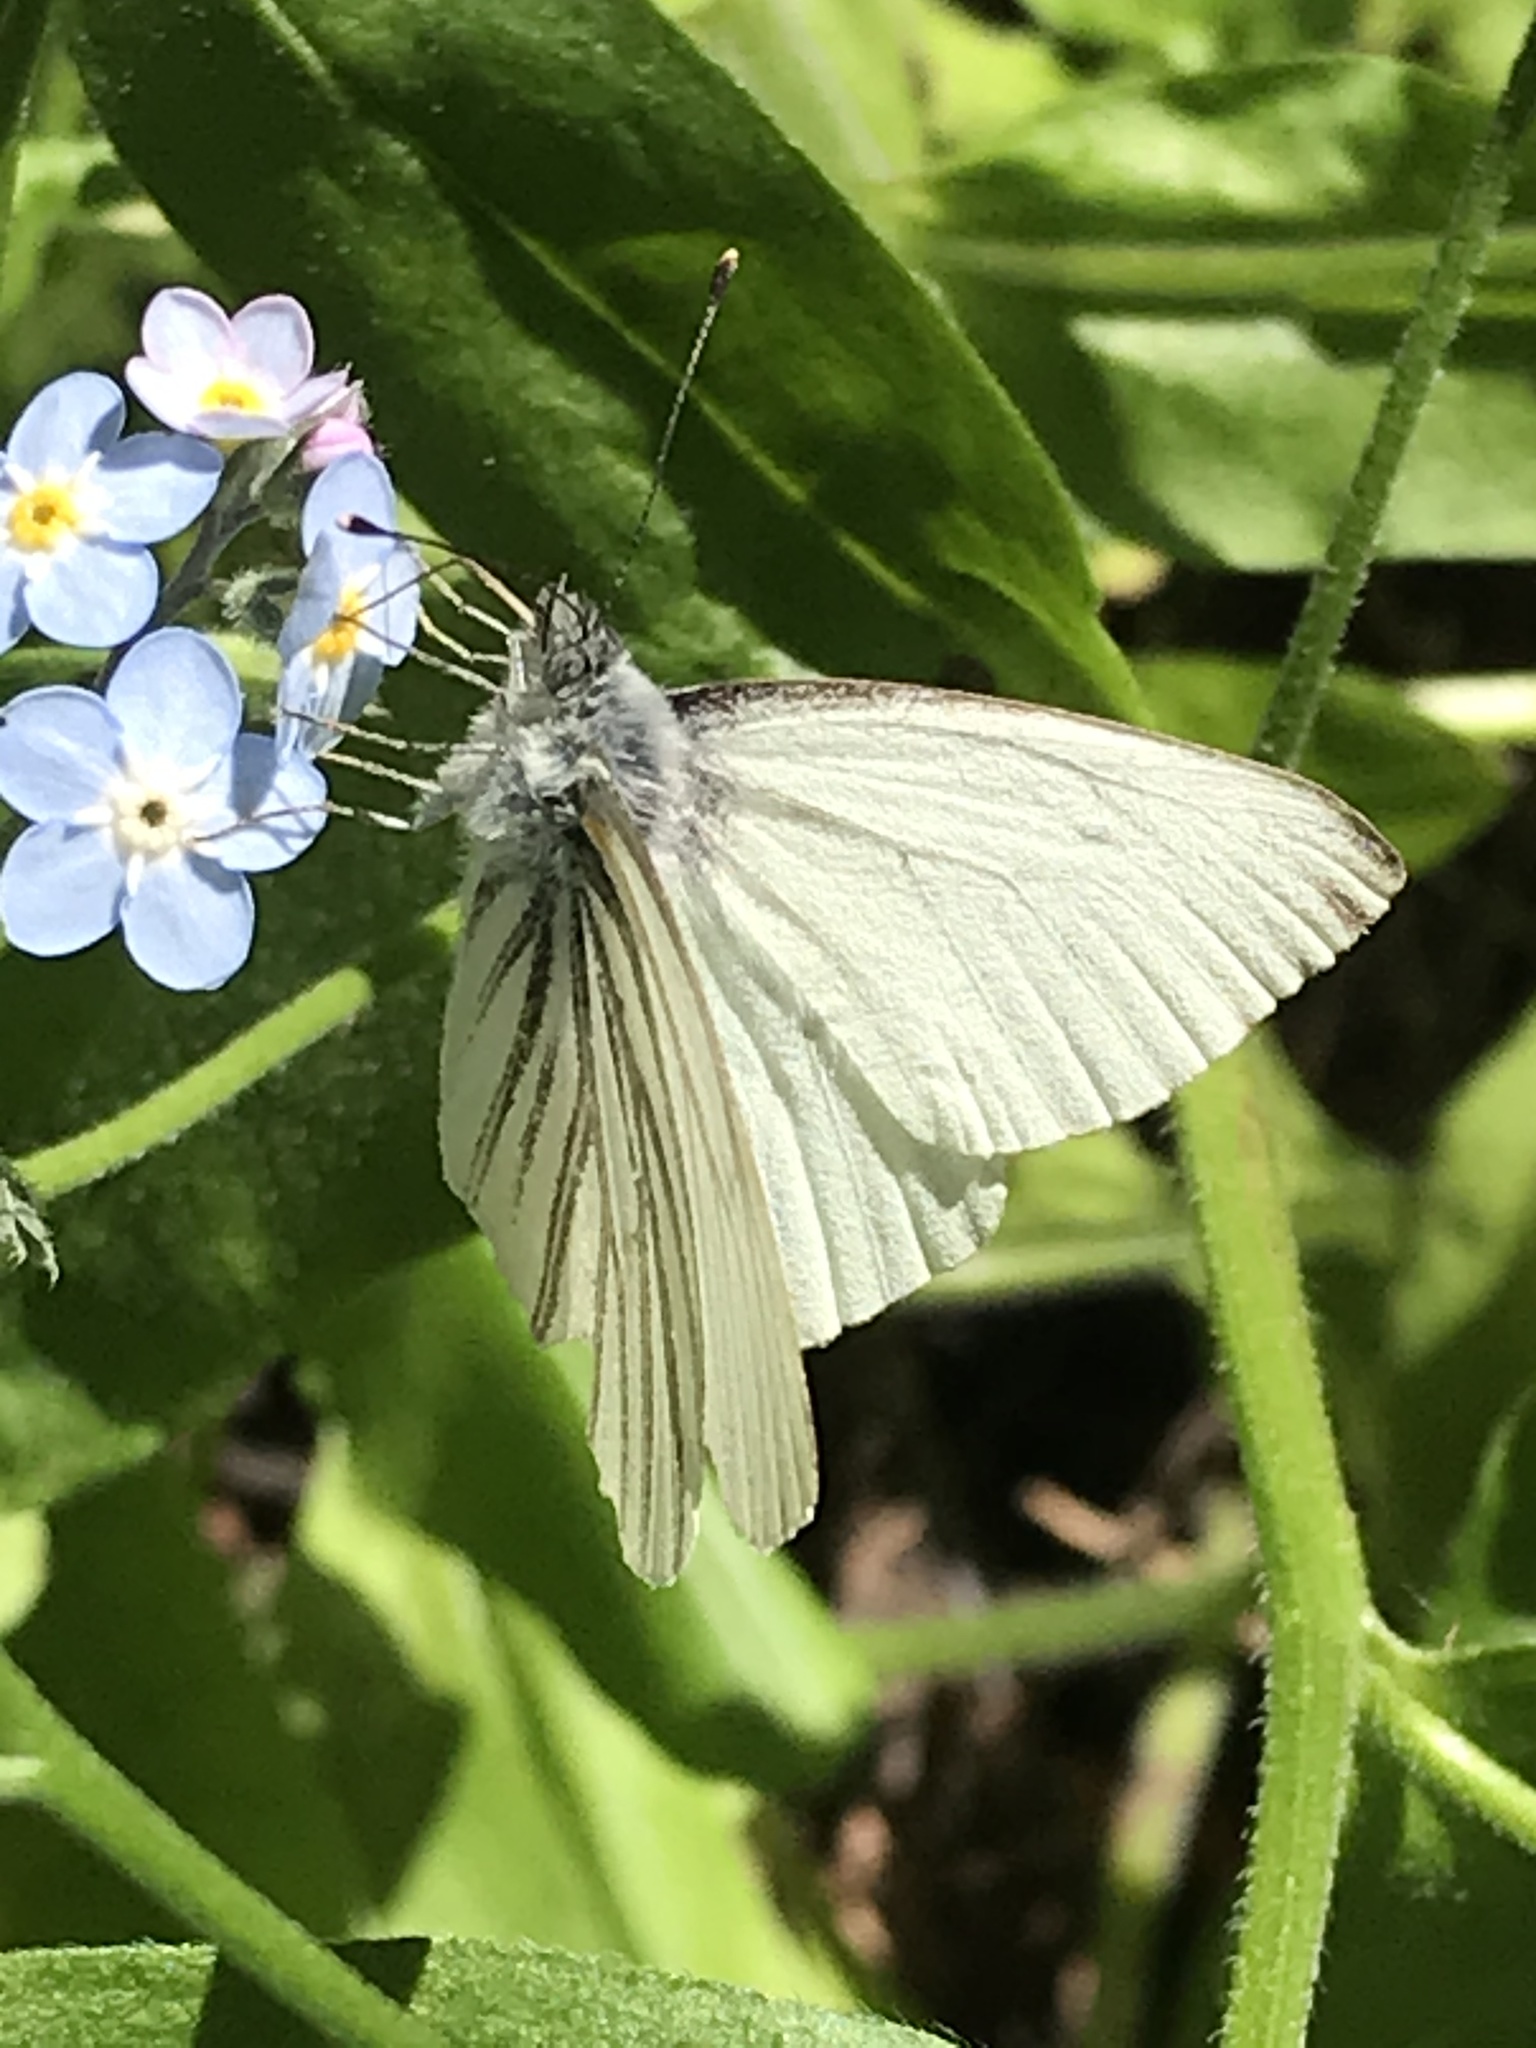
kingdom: Animalia
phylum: Arthropoda
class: Insecta
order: Lepidoptera
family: Pieridae
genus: Pieris
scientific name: Pieris marginalis
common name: Margined white
